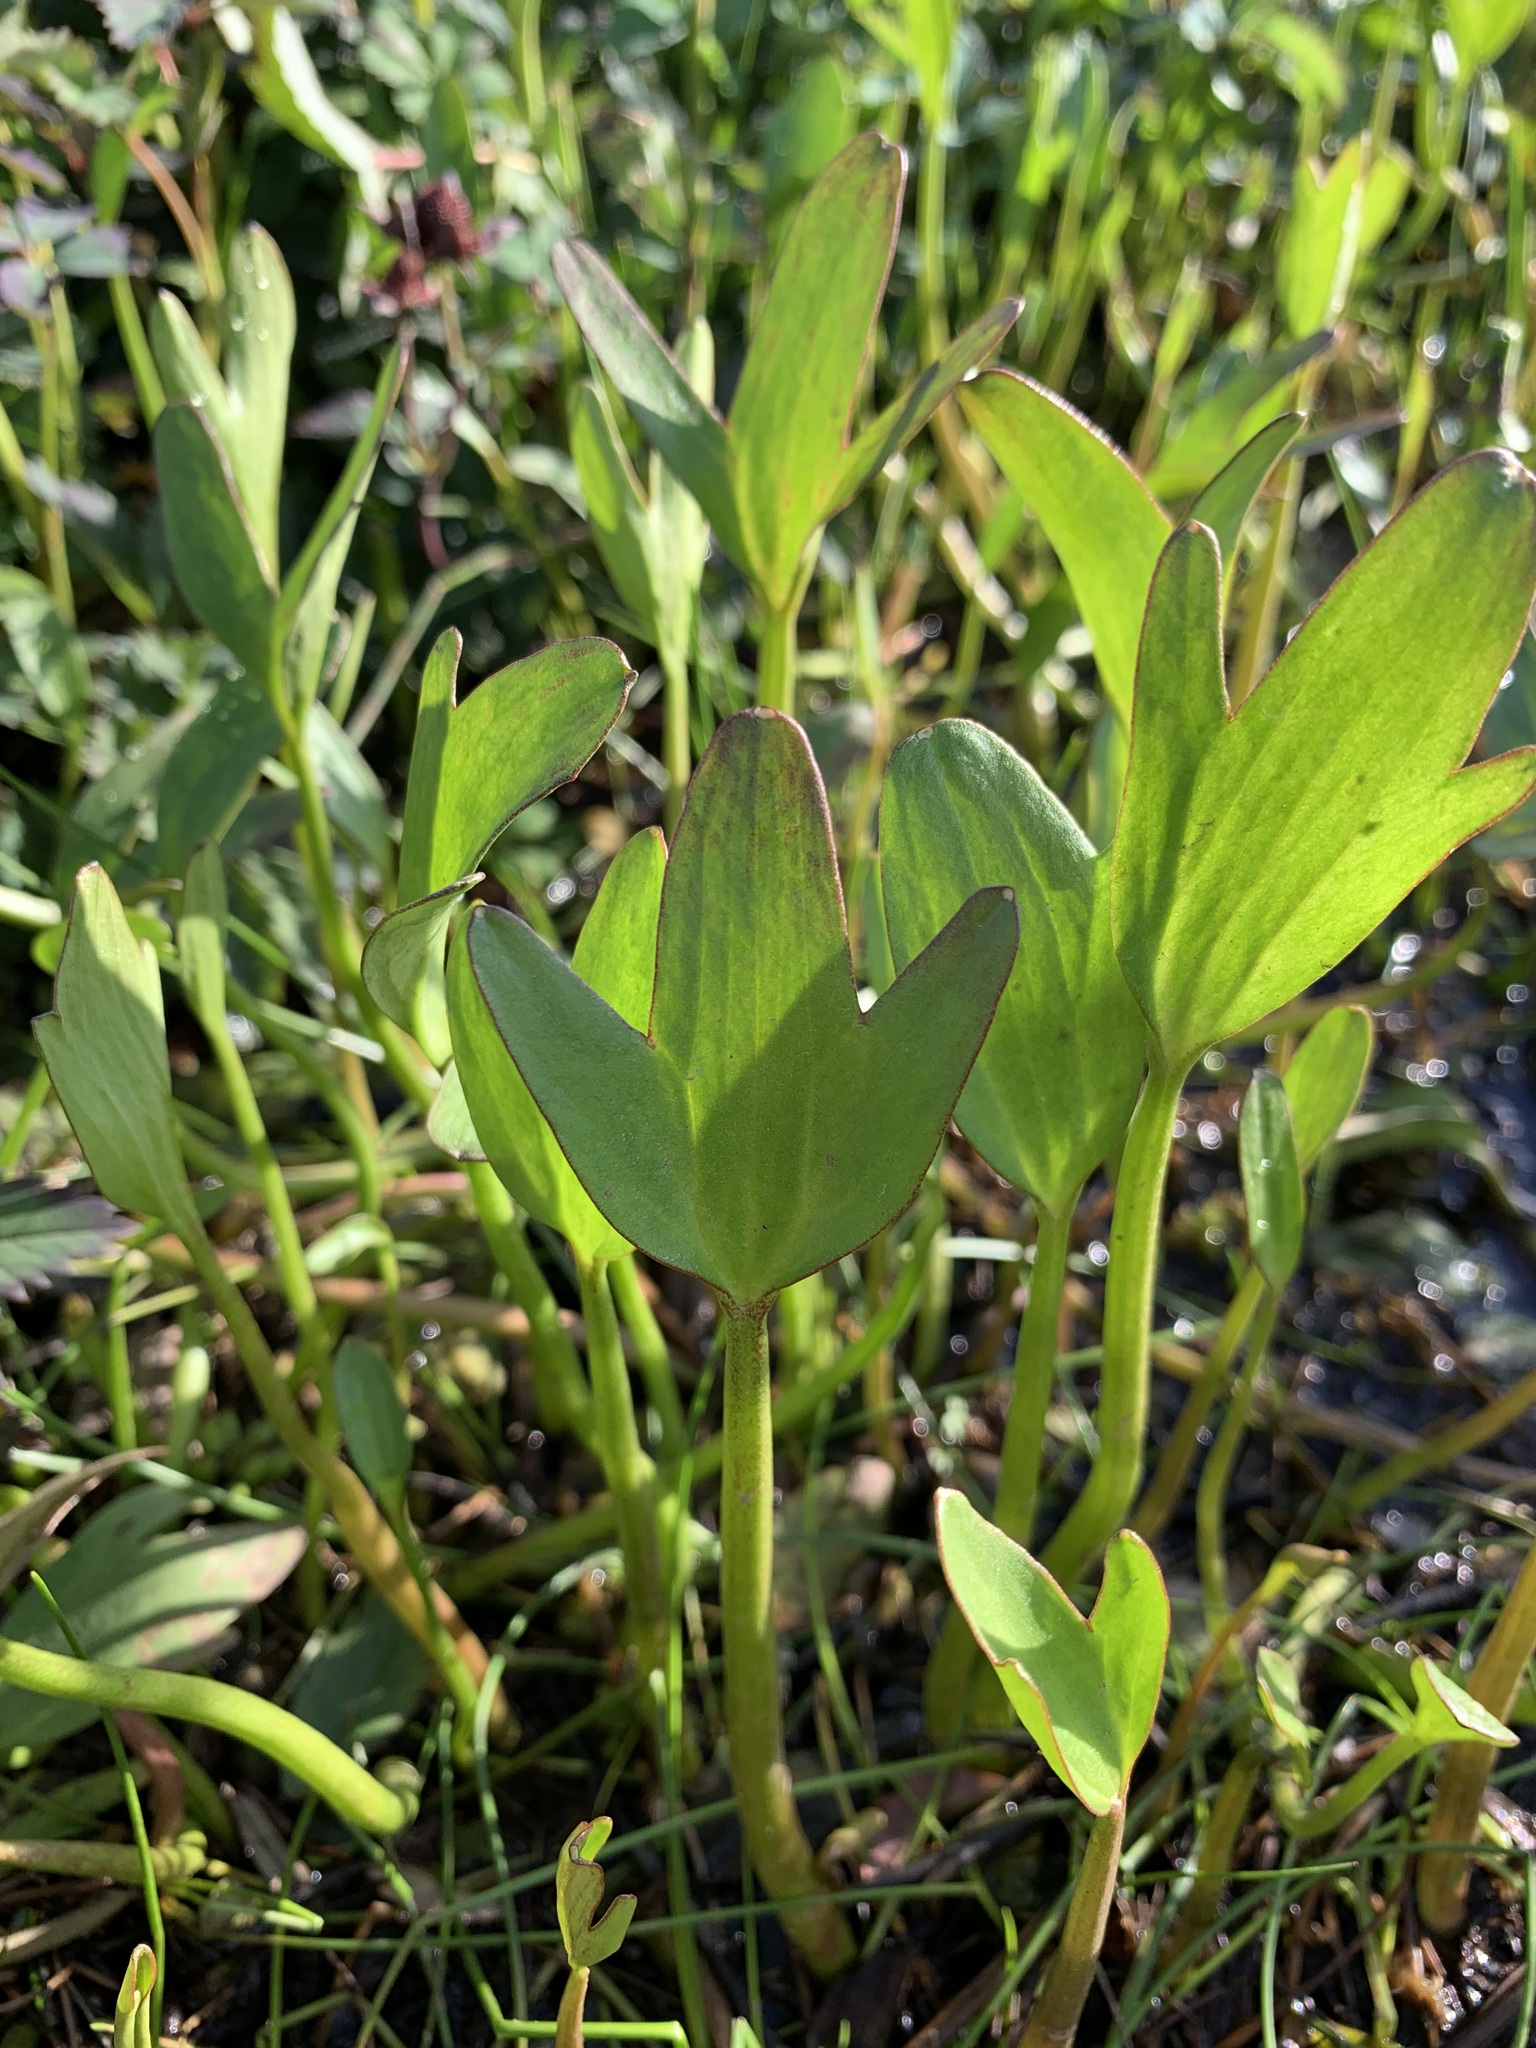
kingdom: Plantae
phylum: Tracheophyta
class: Magnoliopsida
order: Ranunculales
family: Ranunculaceae
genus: Coptidium
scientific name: Coptidium pallasii
